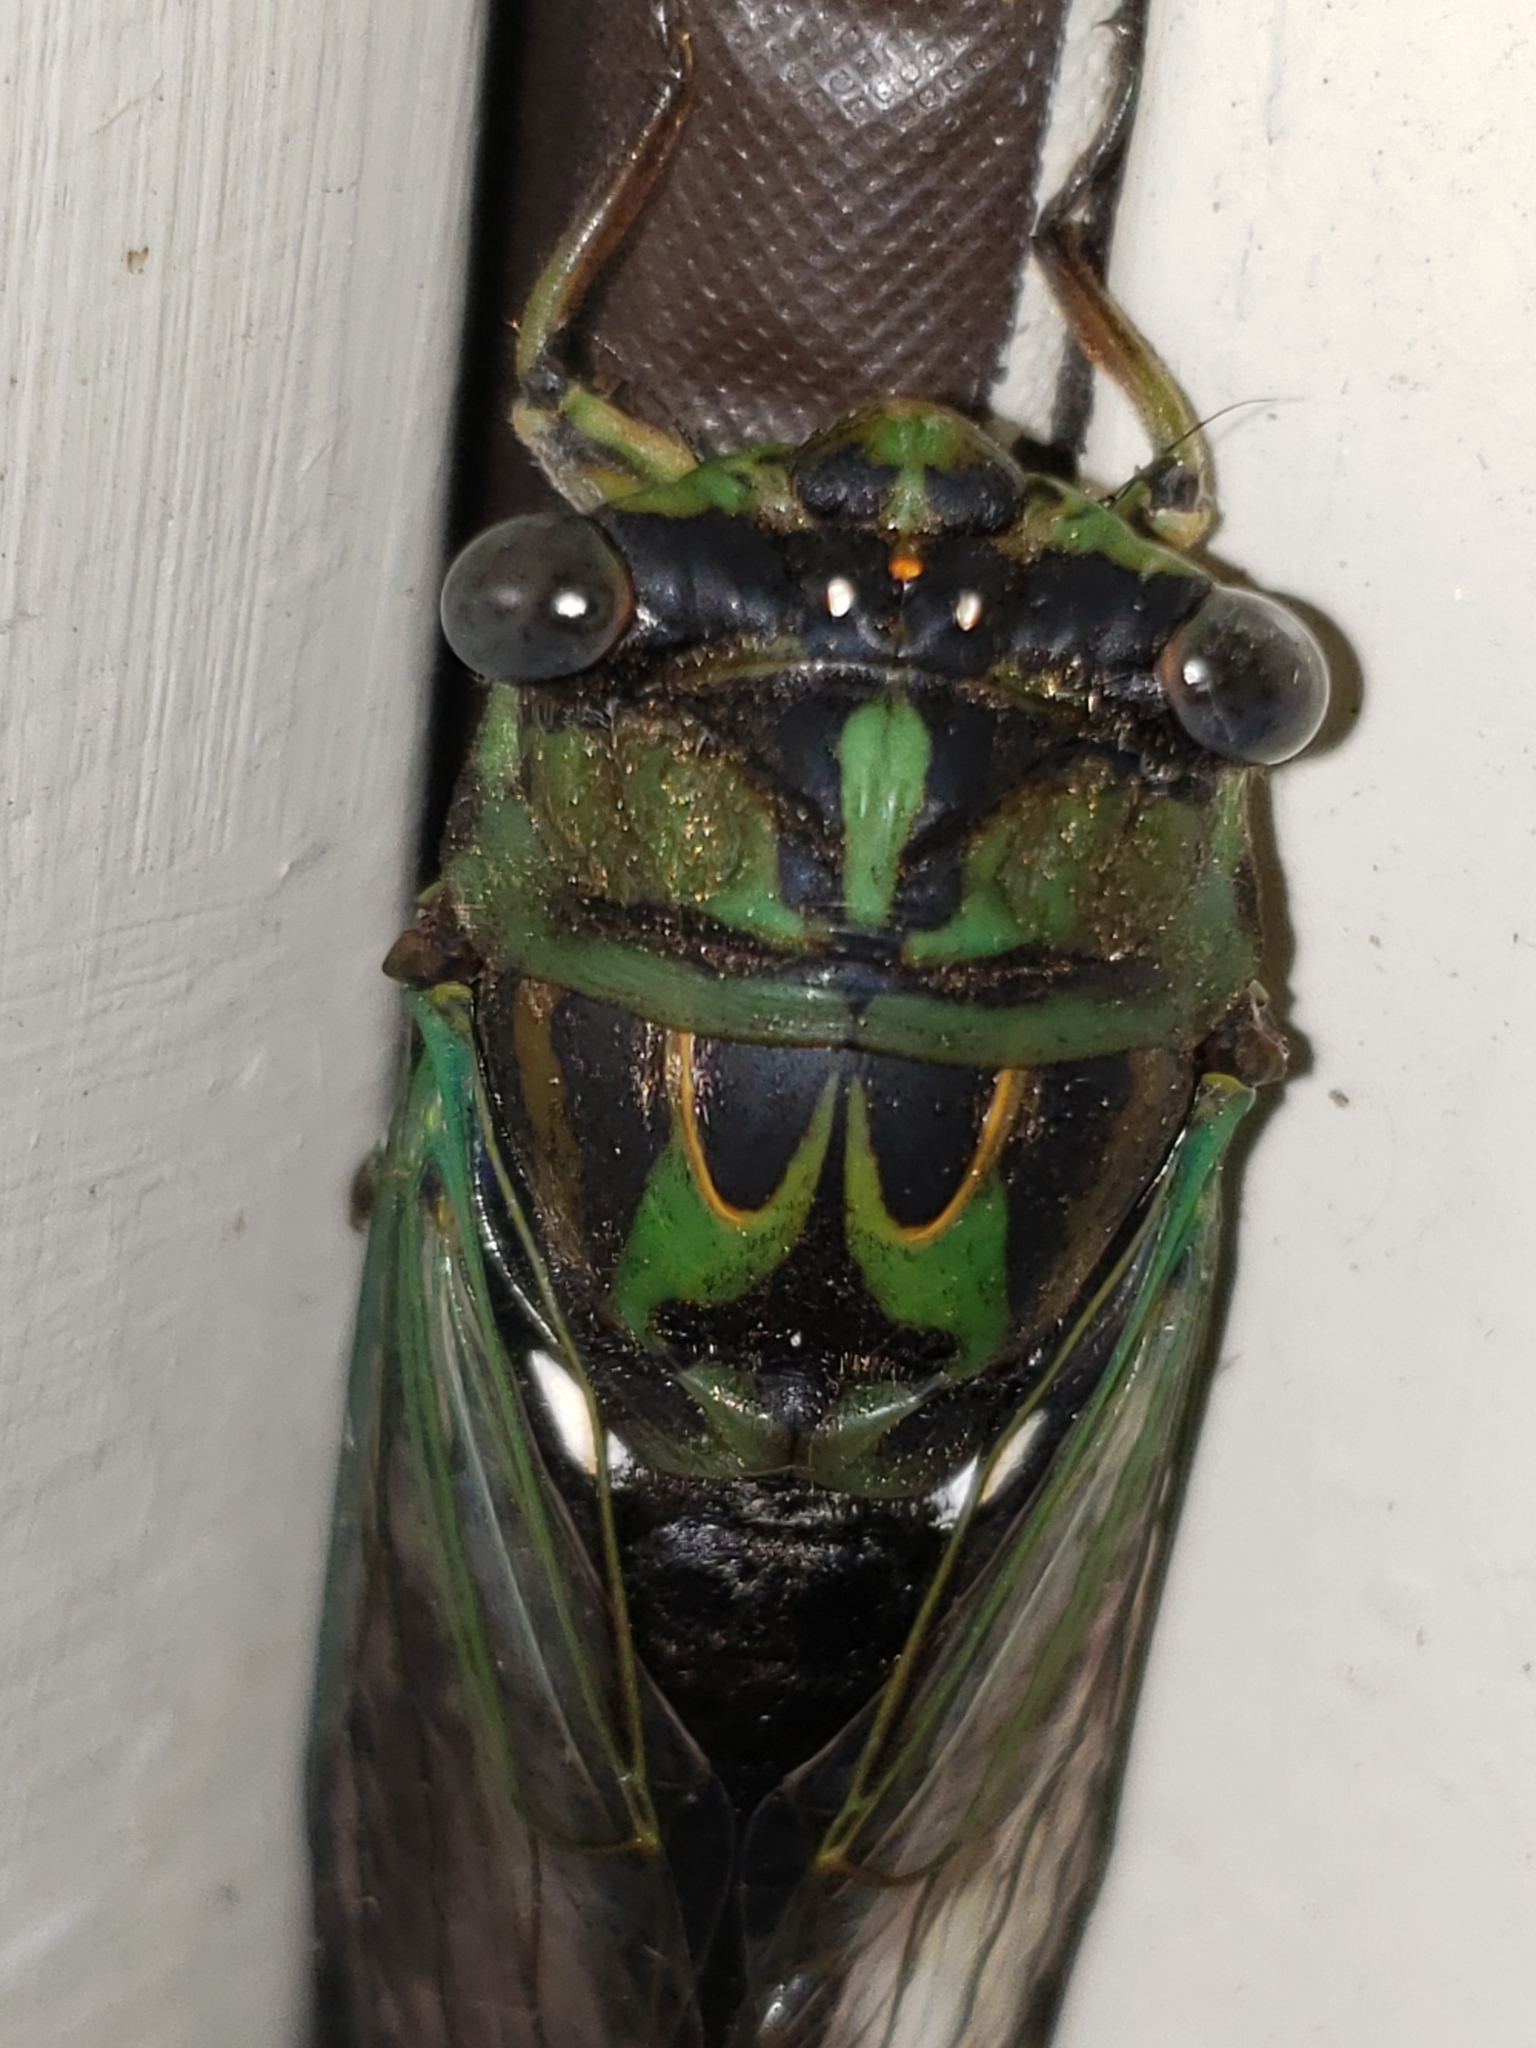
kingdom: Animalia
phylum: Arthropoda
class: Insecta
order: Hemiptera
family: Cicadidae
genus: Neotibicen
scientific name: Neotibicen robinsonianus
